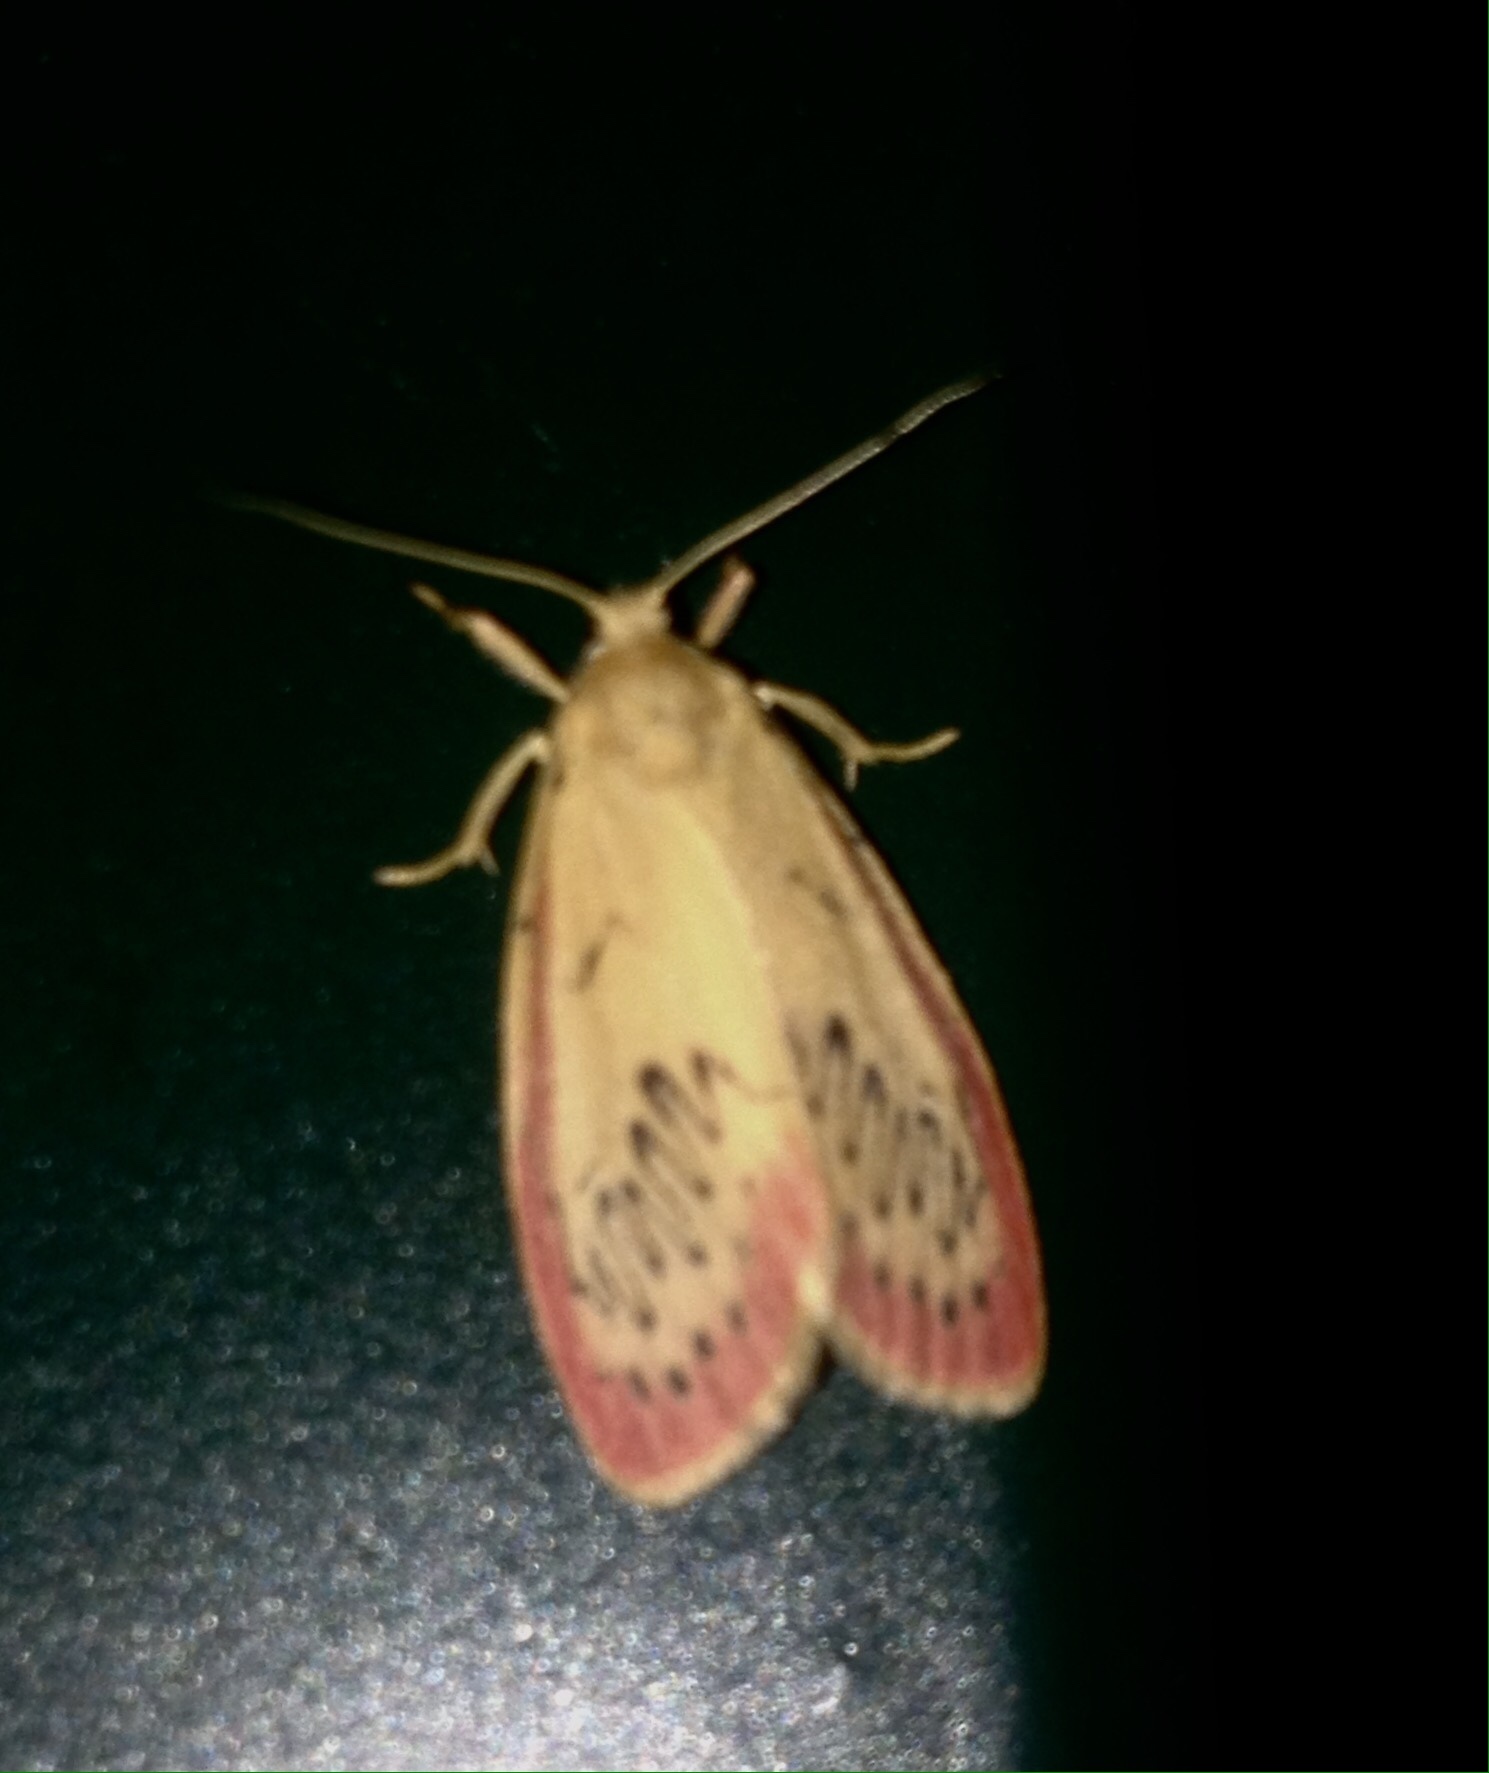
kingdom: Animalia
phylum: Arthropoda
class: Insecta
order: Lepidoptera
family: Erebidae
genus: Miltochrista
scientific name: Miltochrista miniata
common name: Rosy footman
